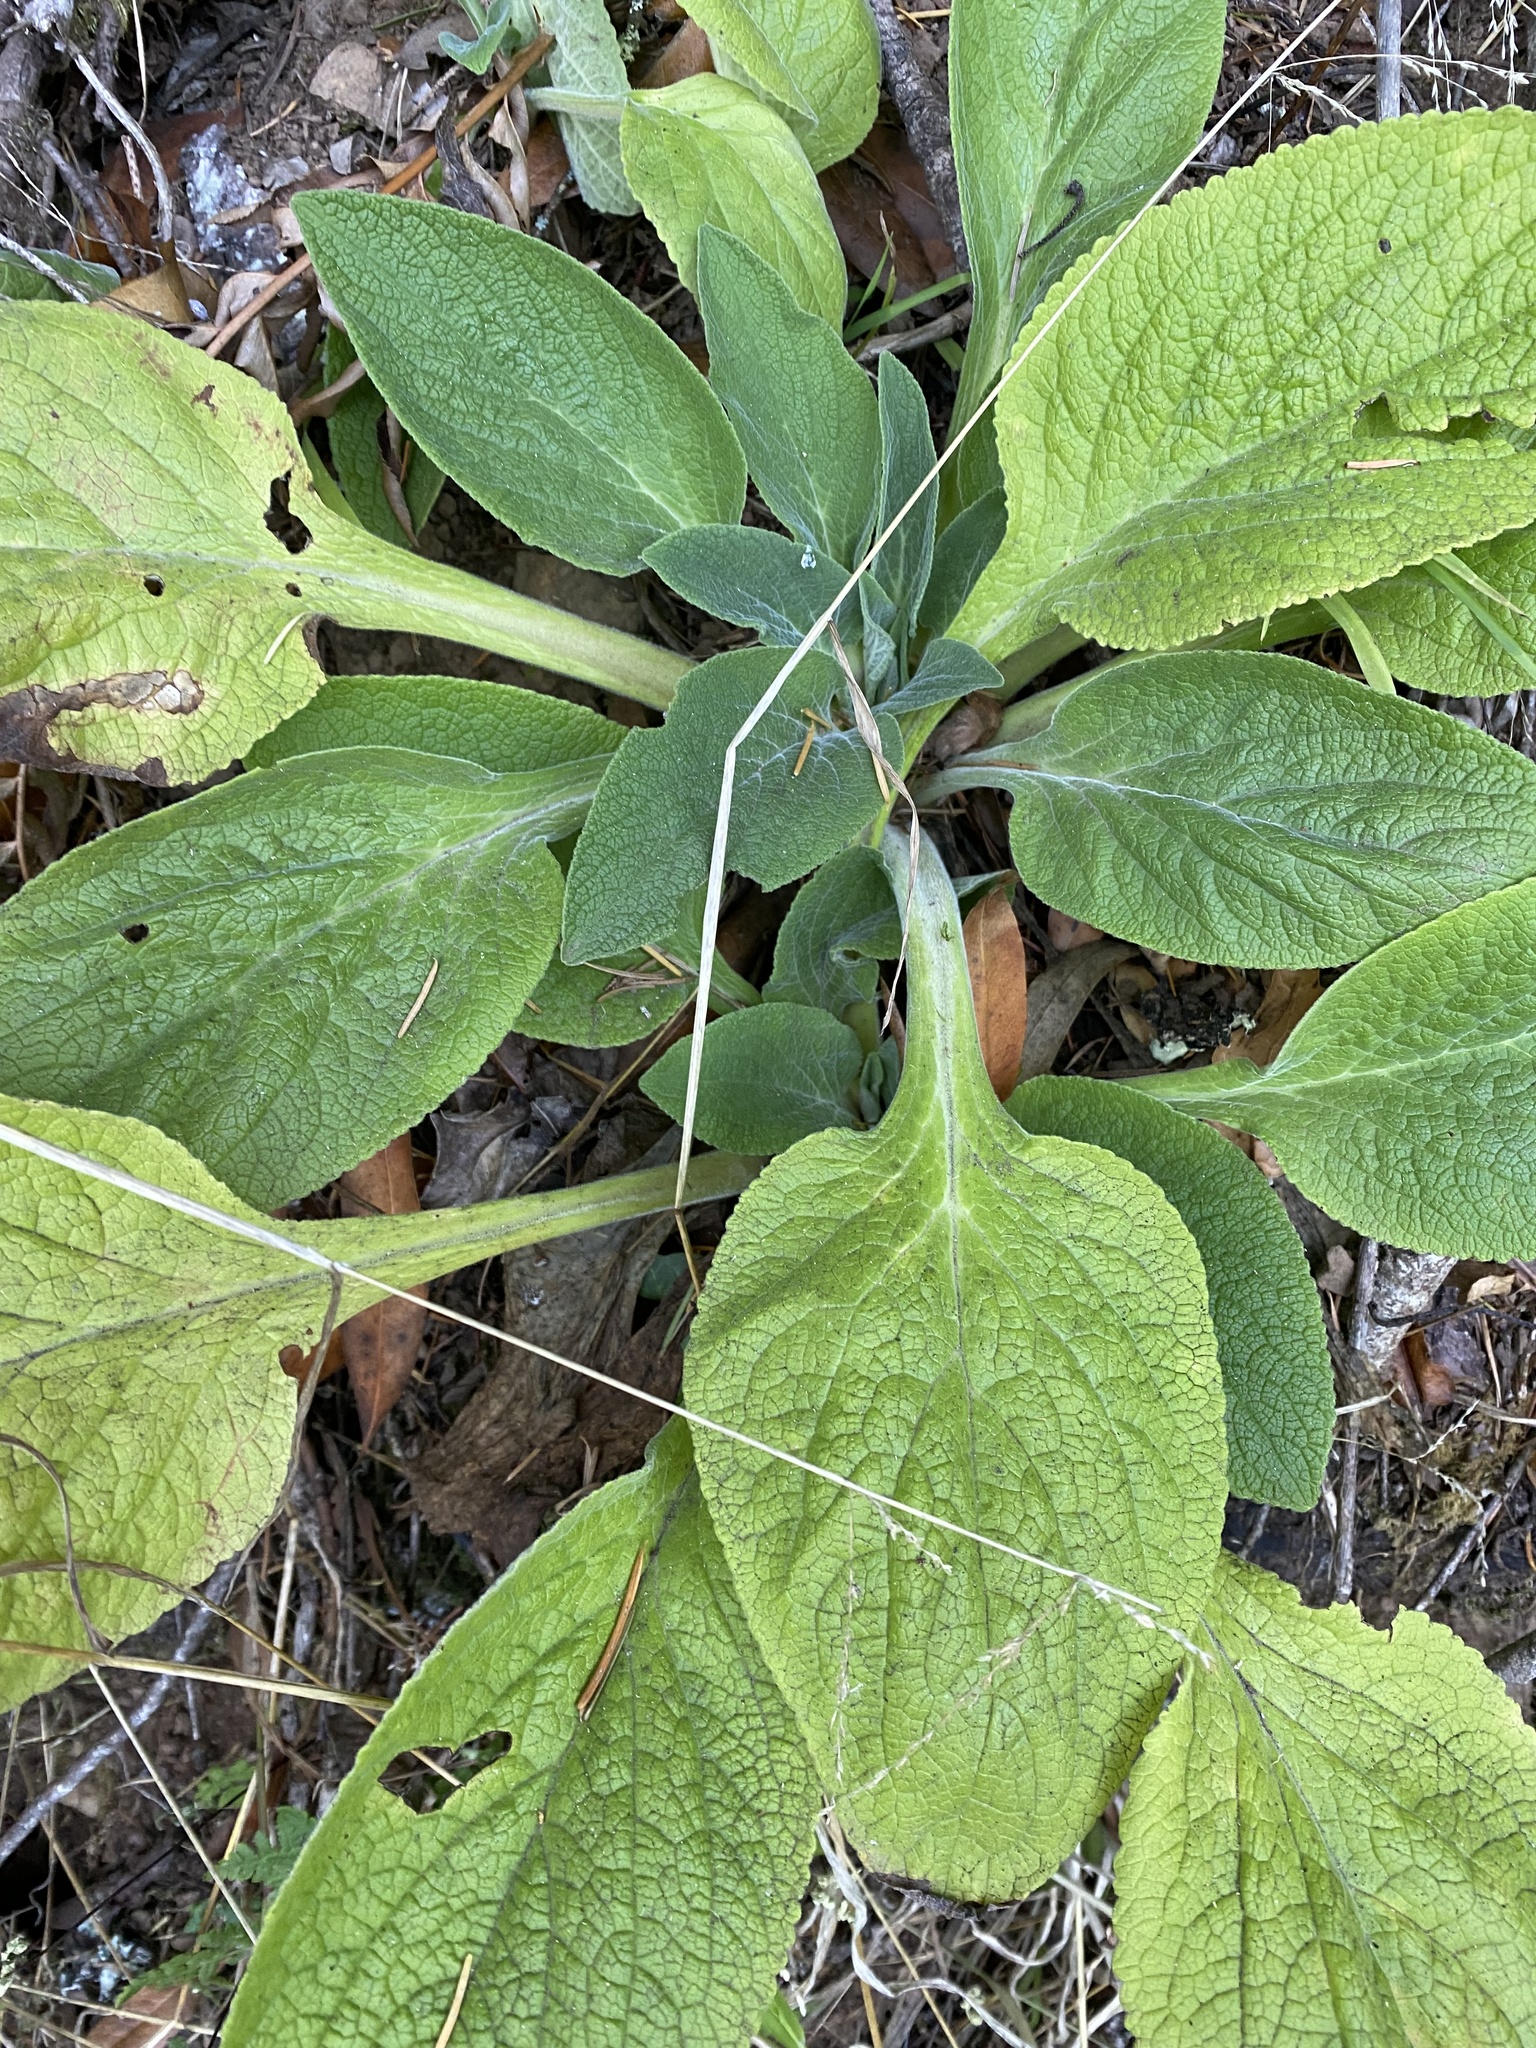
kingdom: Plantae
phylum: Tracheophyta
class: Magnoliopsida
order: Lamiales
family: Plantaginaceae
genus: Digitalis
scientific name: Digitalis purpurea
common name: Foxglove
